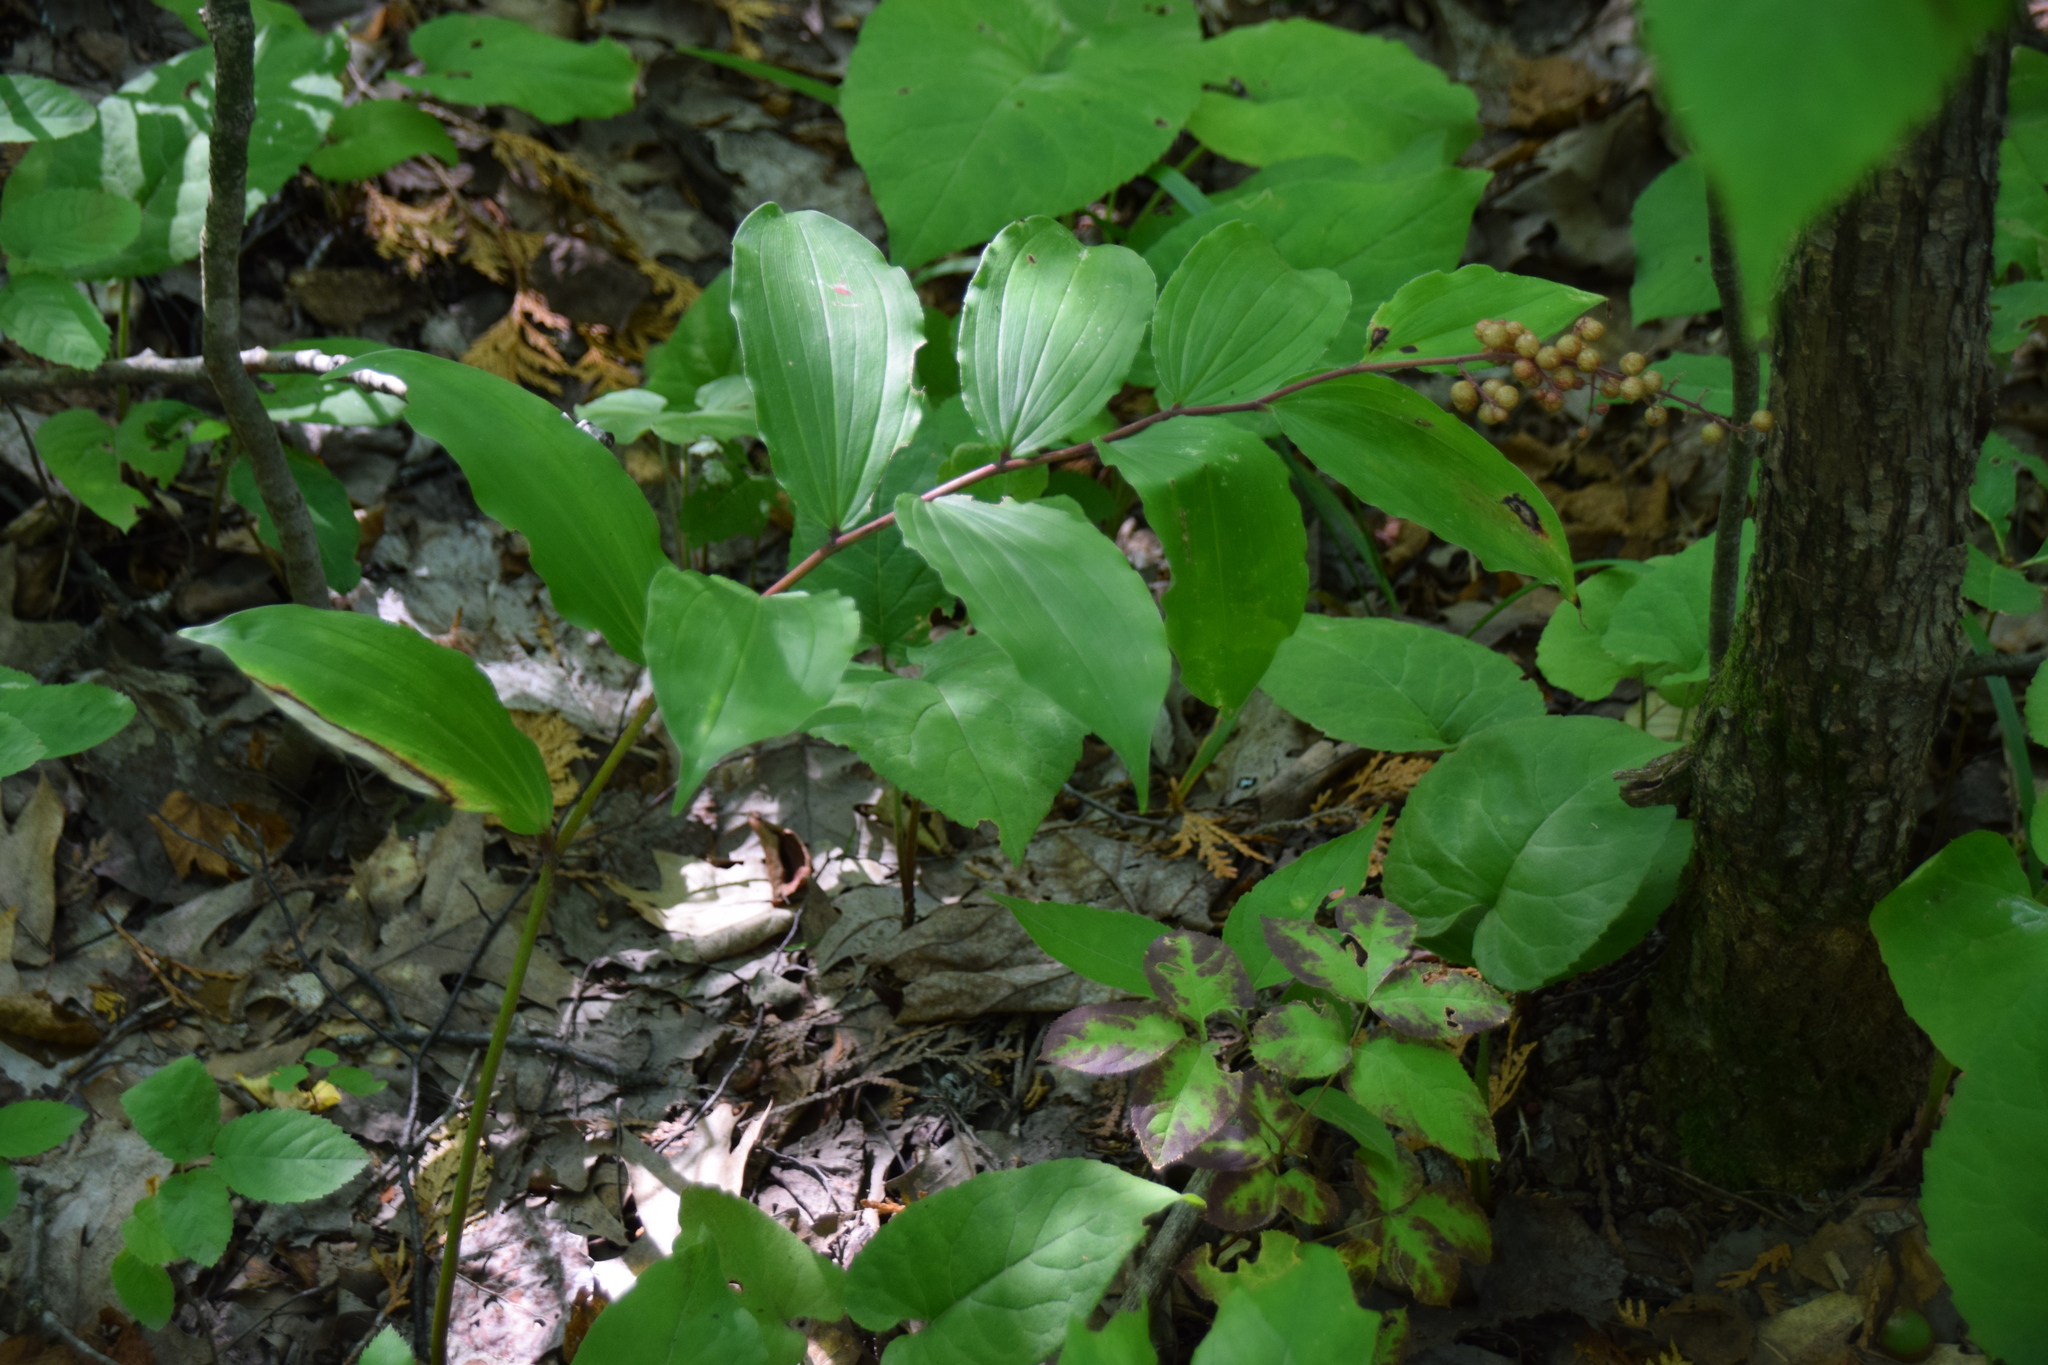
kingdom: Plantae
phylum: Tracheophyta
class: Liliopsida
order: Asparagales
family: Asparagaceae
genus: Maianthemum
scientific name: Maianthemum racemosum
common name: False spikenard
